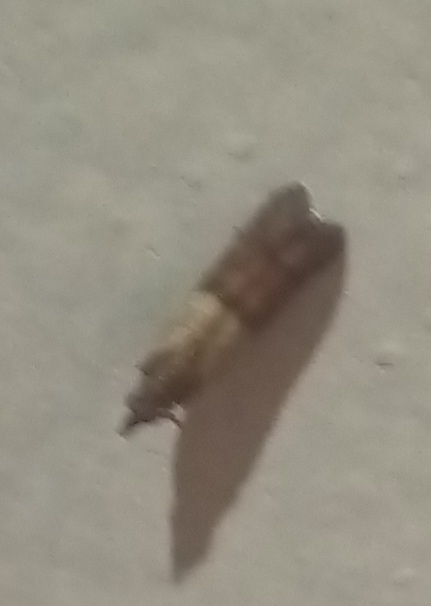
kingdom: Animalia
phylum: Arthropoda
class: Insecta
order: Lepidoptera
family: Pyralidae
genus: Plodia
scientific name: Plodia interpunctella
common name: Indian meal moth
